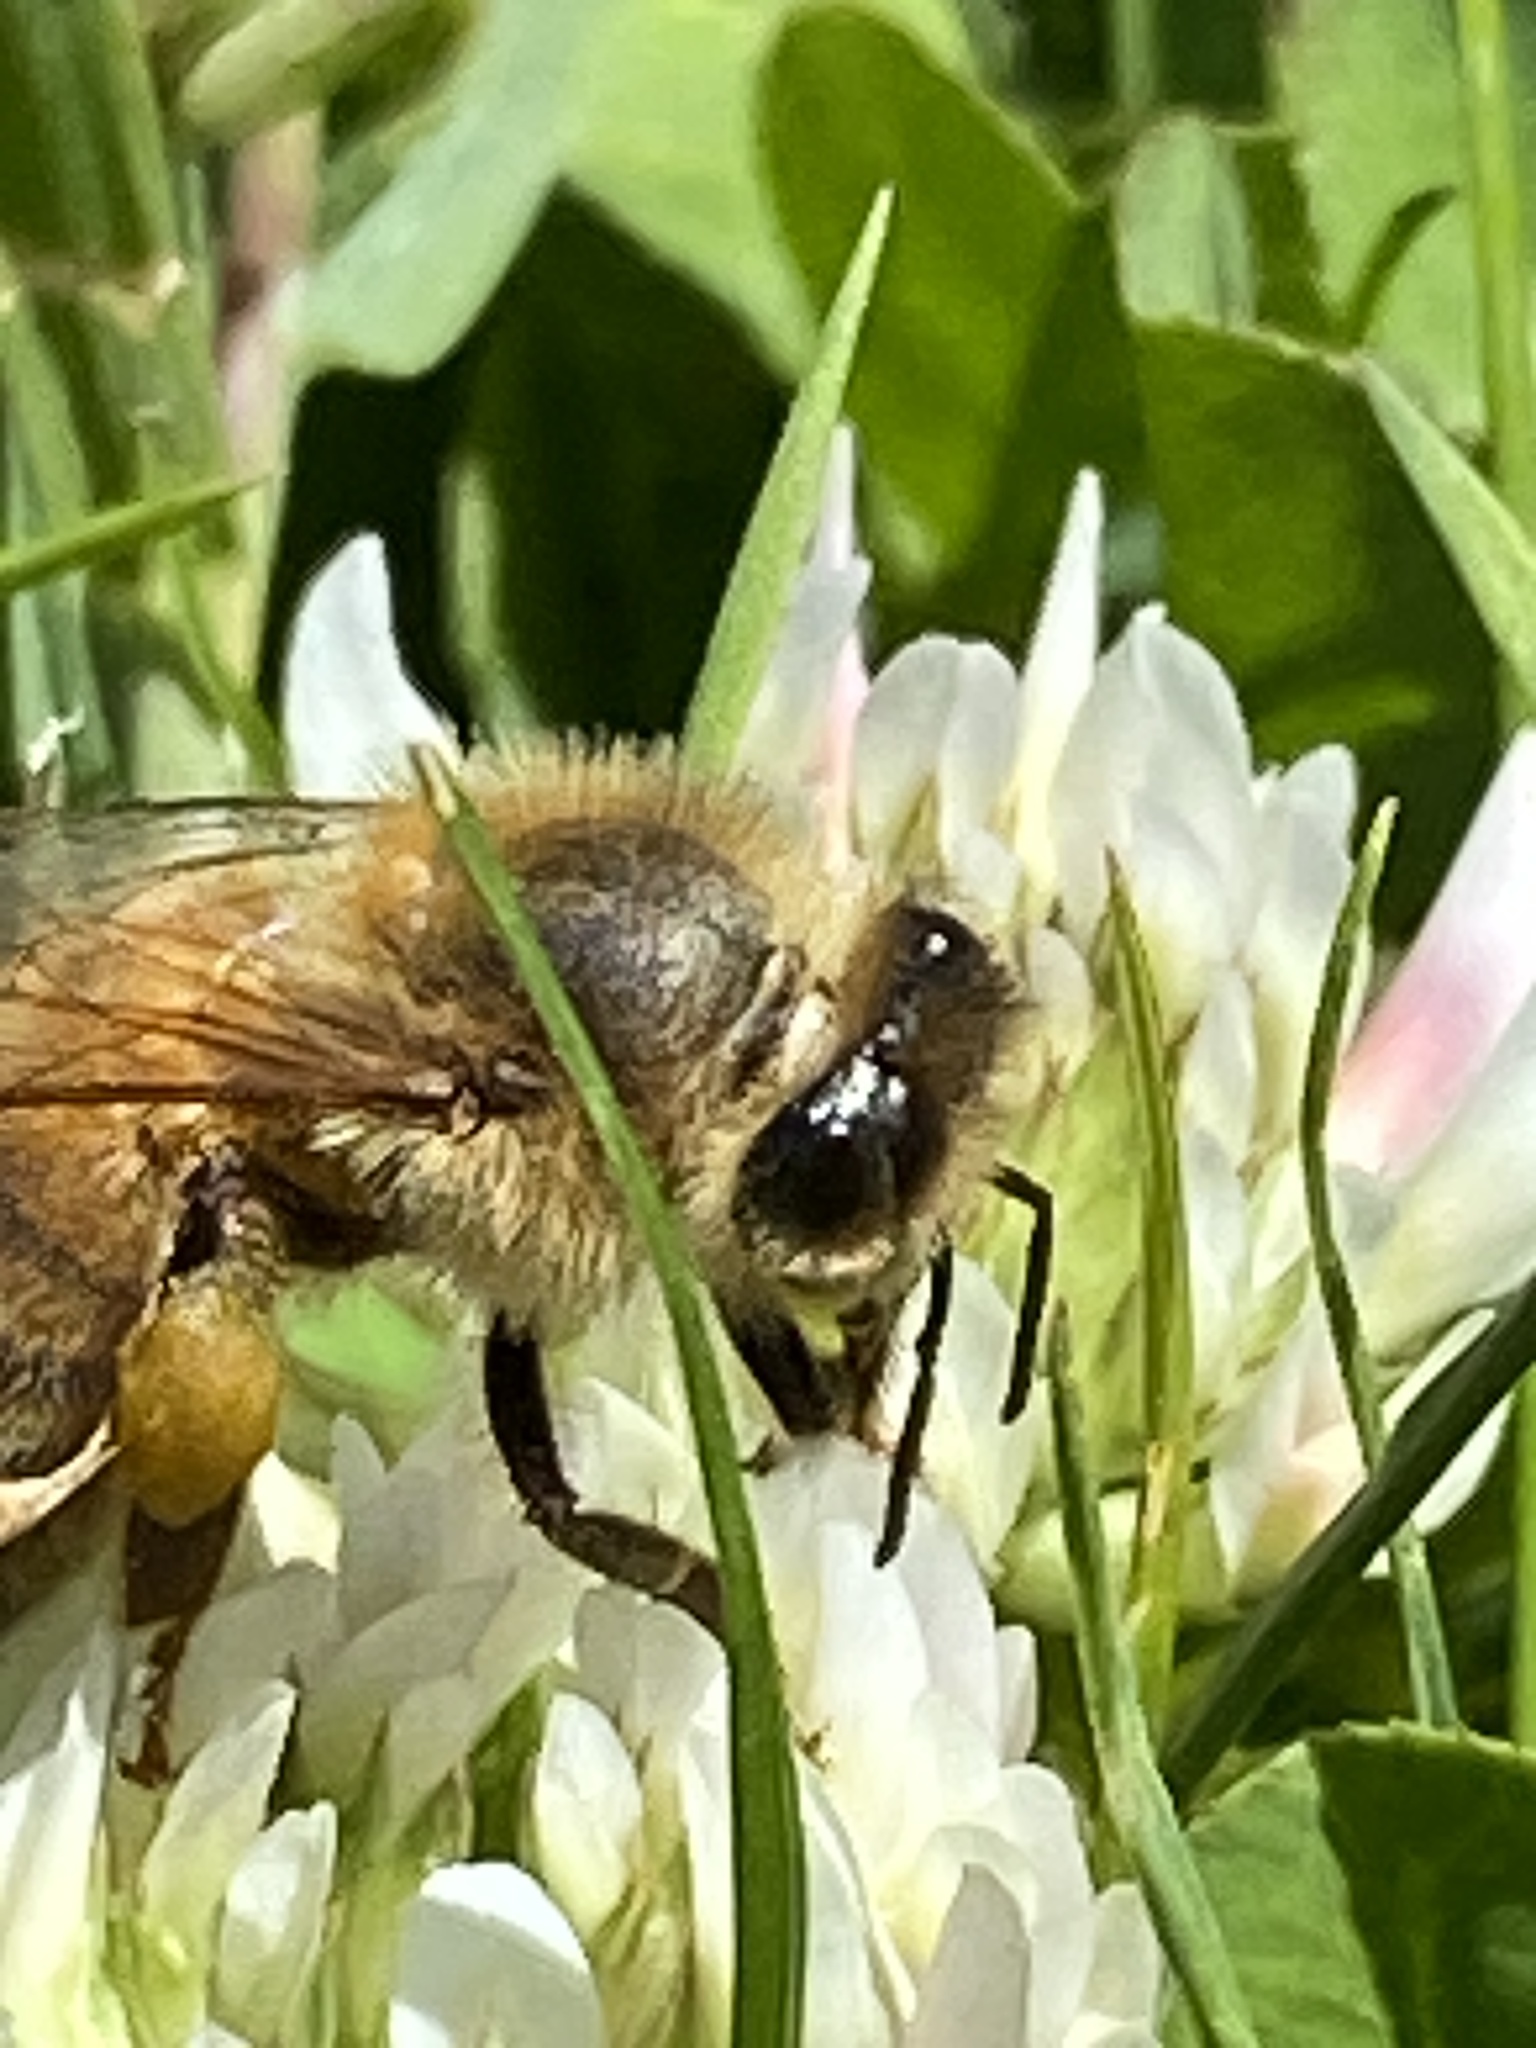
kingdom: Animalia
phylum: Arthropoda
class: Insecta
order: Hymenoptera
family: Apidae
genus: Apis
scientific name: Apis mellifera
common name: Honey bee
